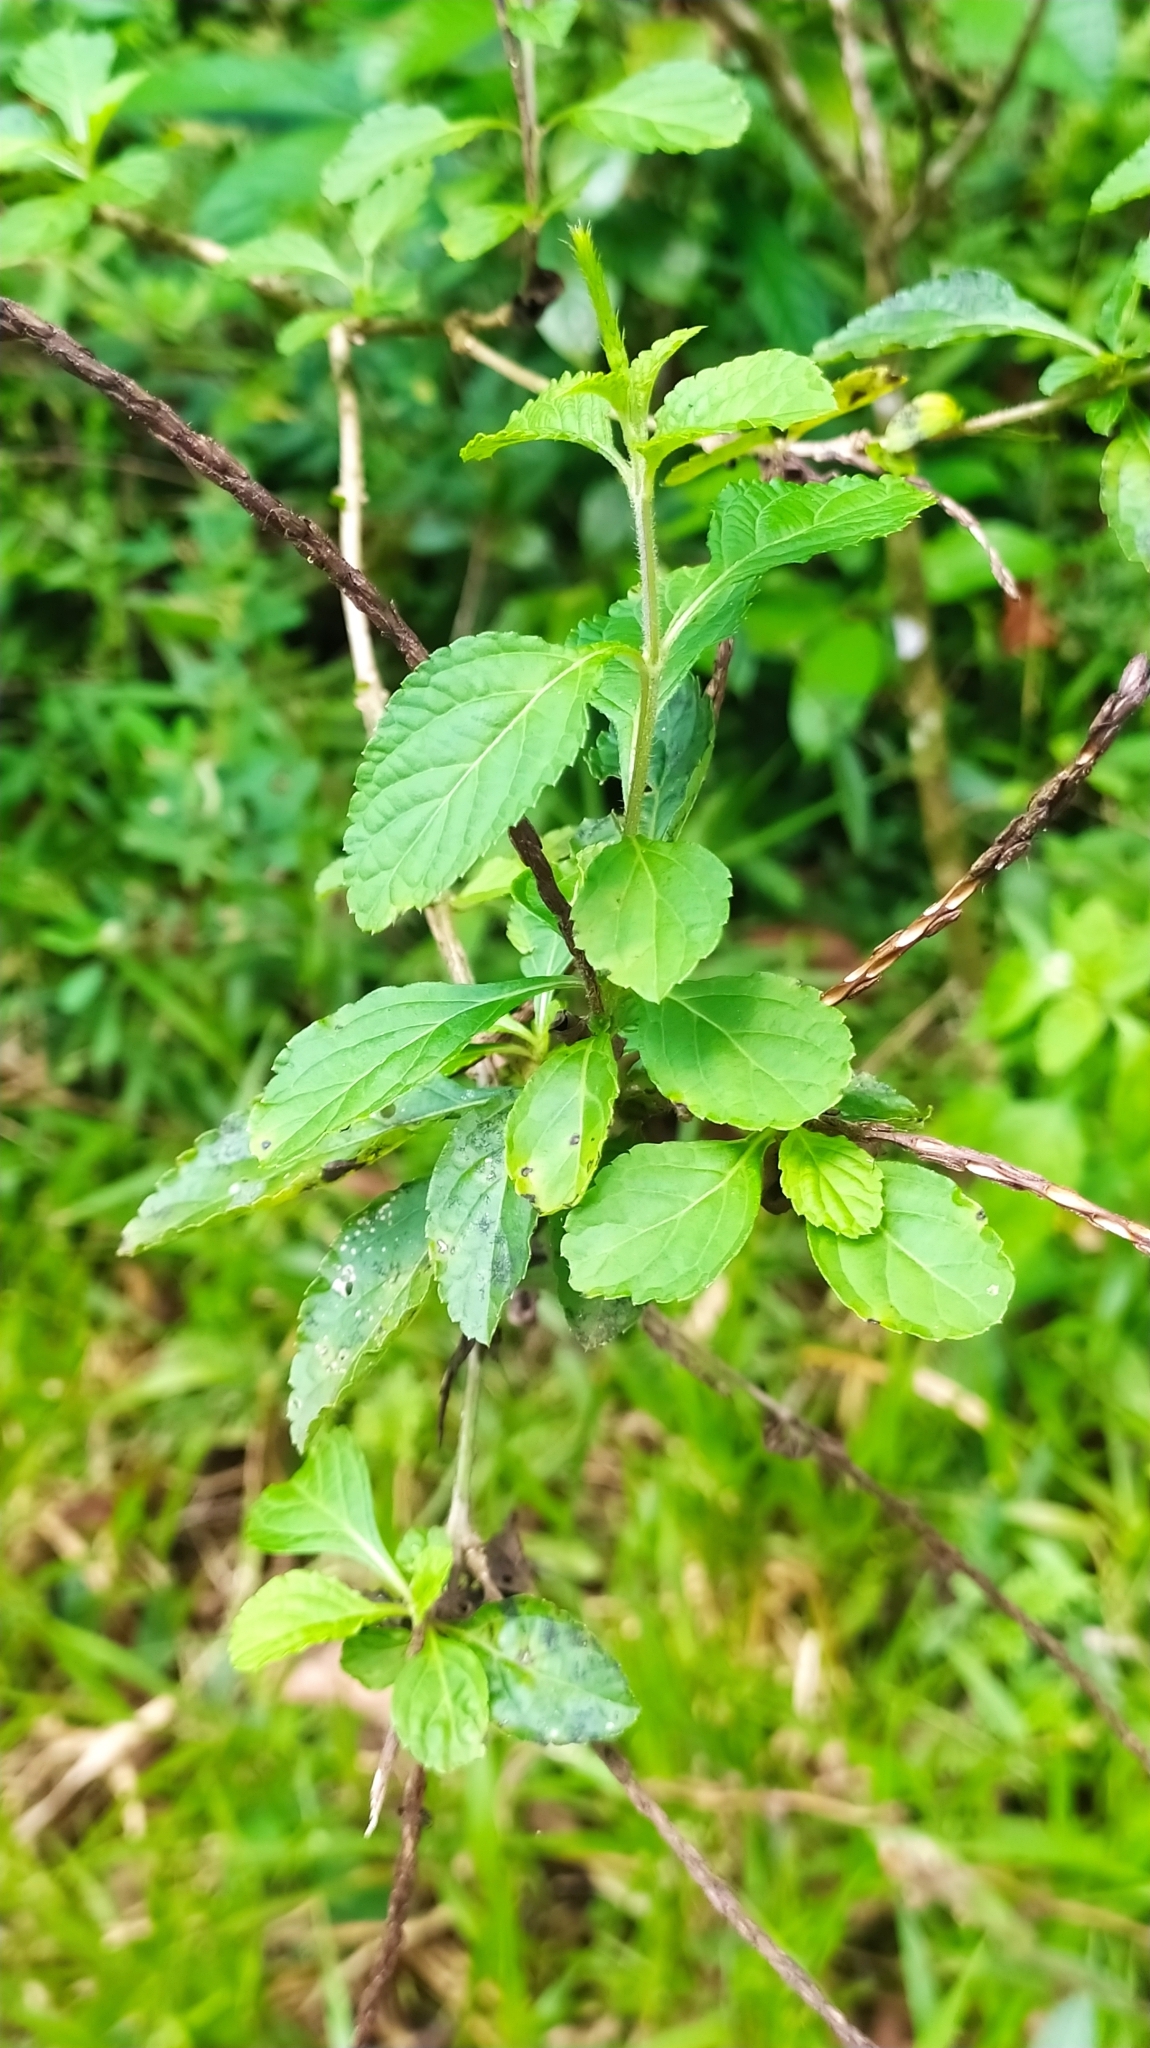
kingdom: Plantae
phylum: Tracheophyta
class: Magnoliopsida
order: Lamiales
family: Verbenaceae
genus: Stachytarpheta
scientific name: Stachytarpheta cayennensis
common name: Cayenne porterweed
